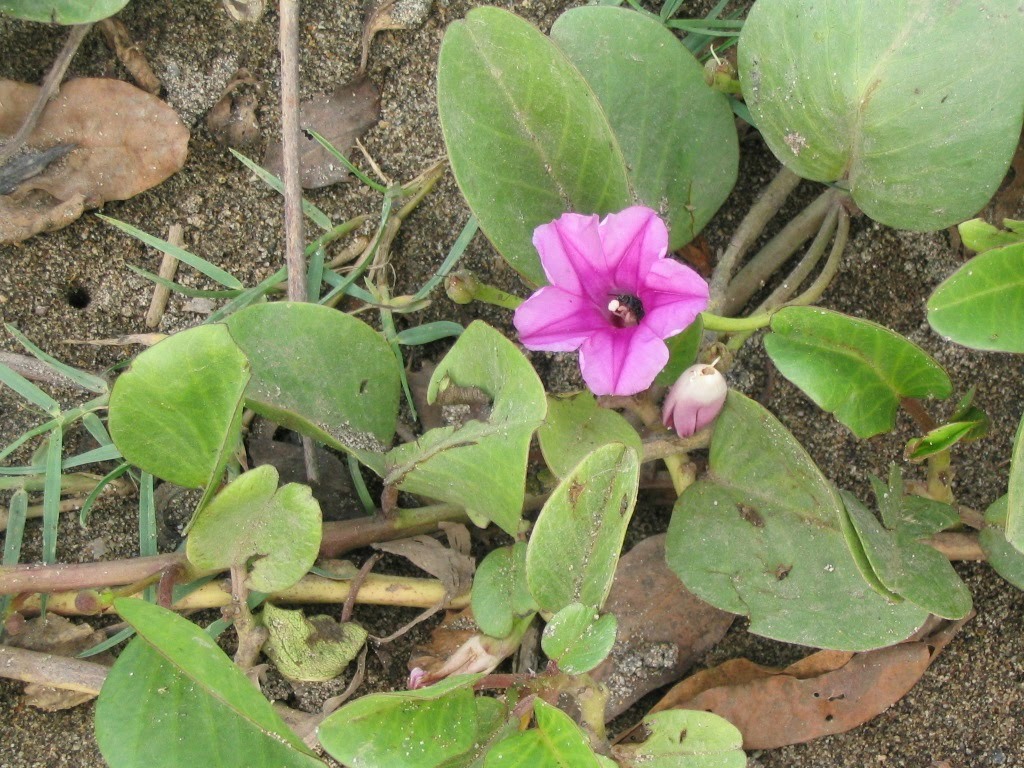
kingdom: Plantae
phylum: Tracheophyta
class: Magnoliopsida
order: Solanales
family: Convolvulaceae
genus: Ipomoea
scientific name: Ipomoea pes-caprae
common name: Beach morning glory
